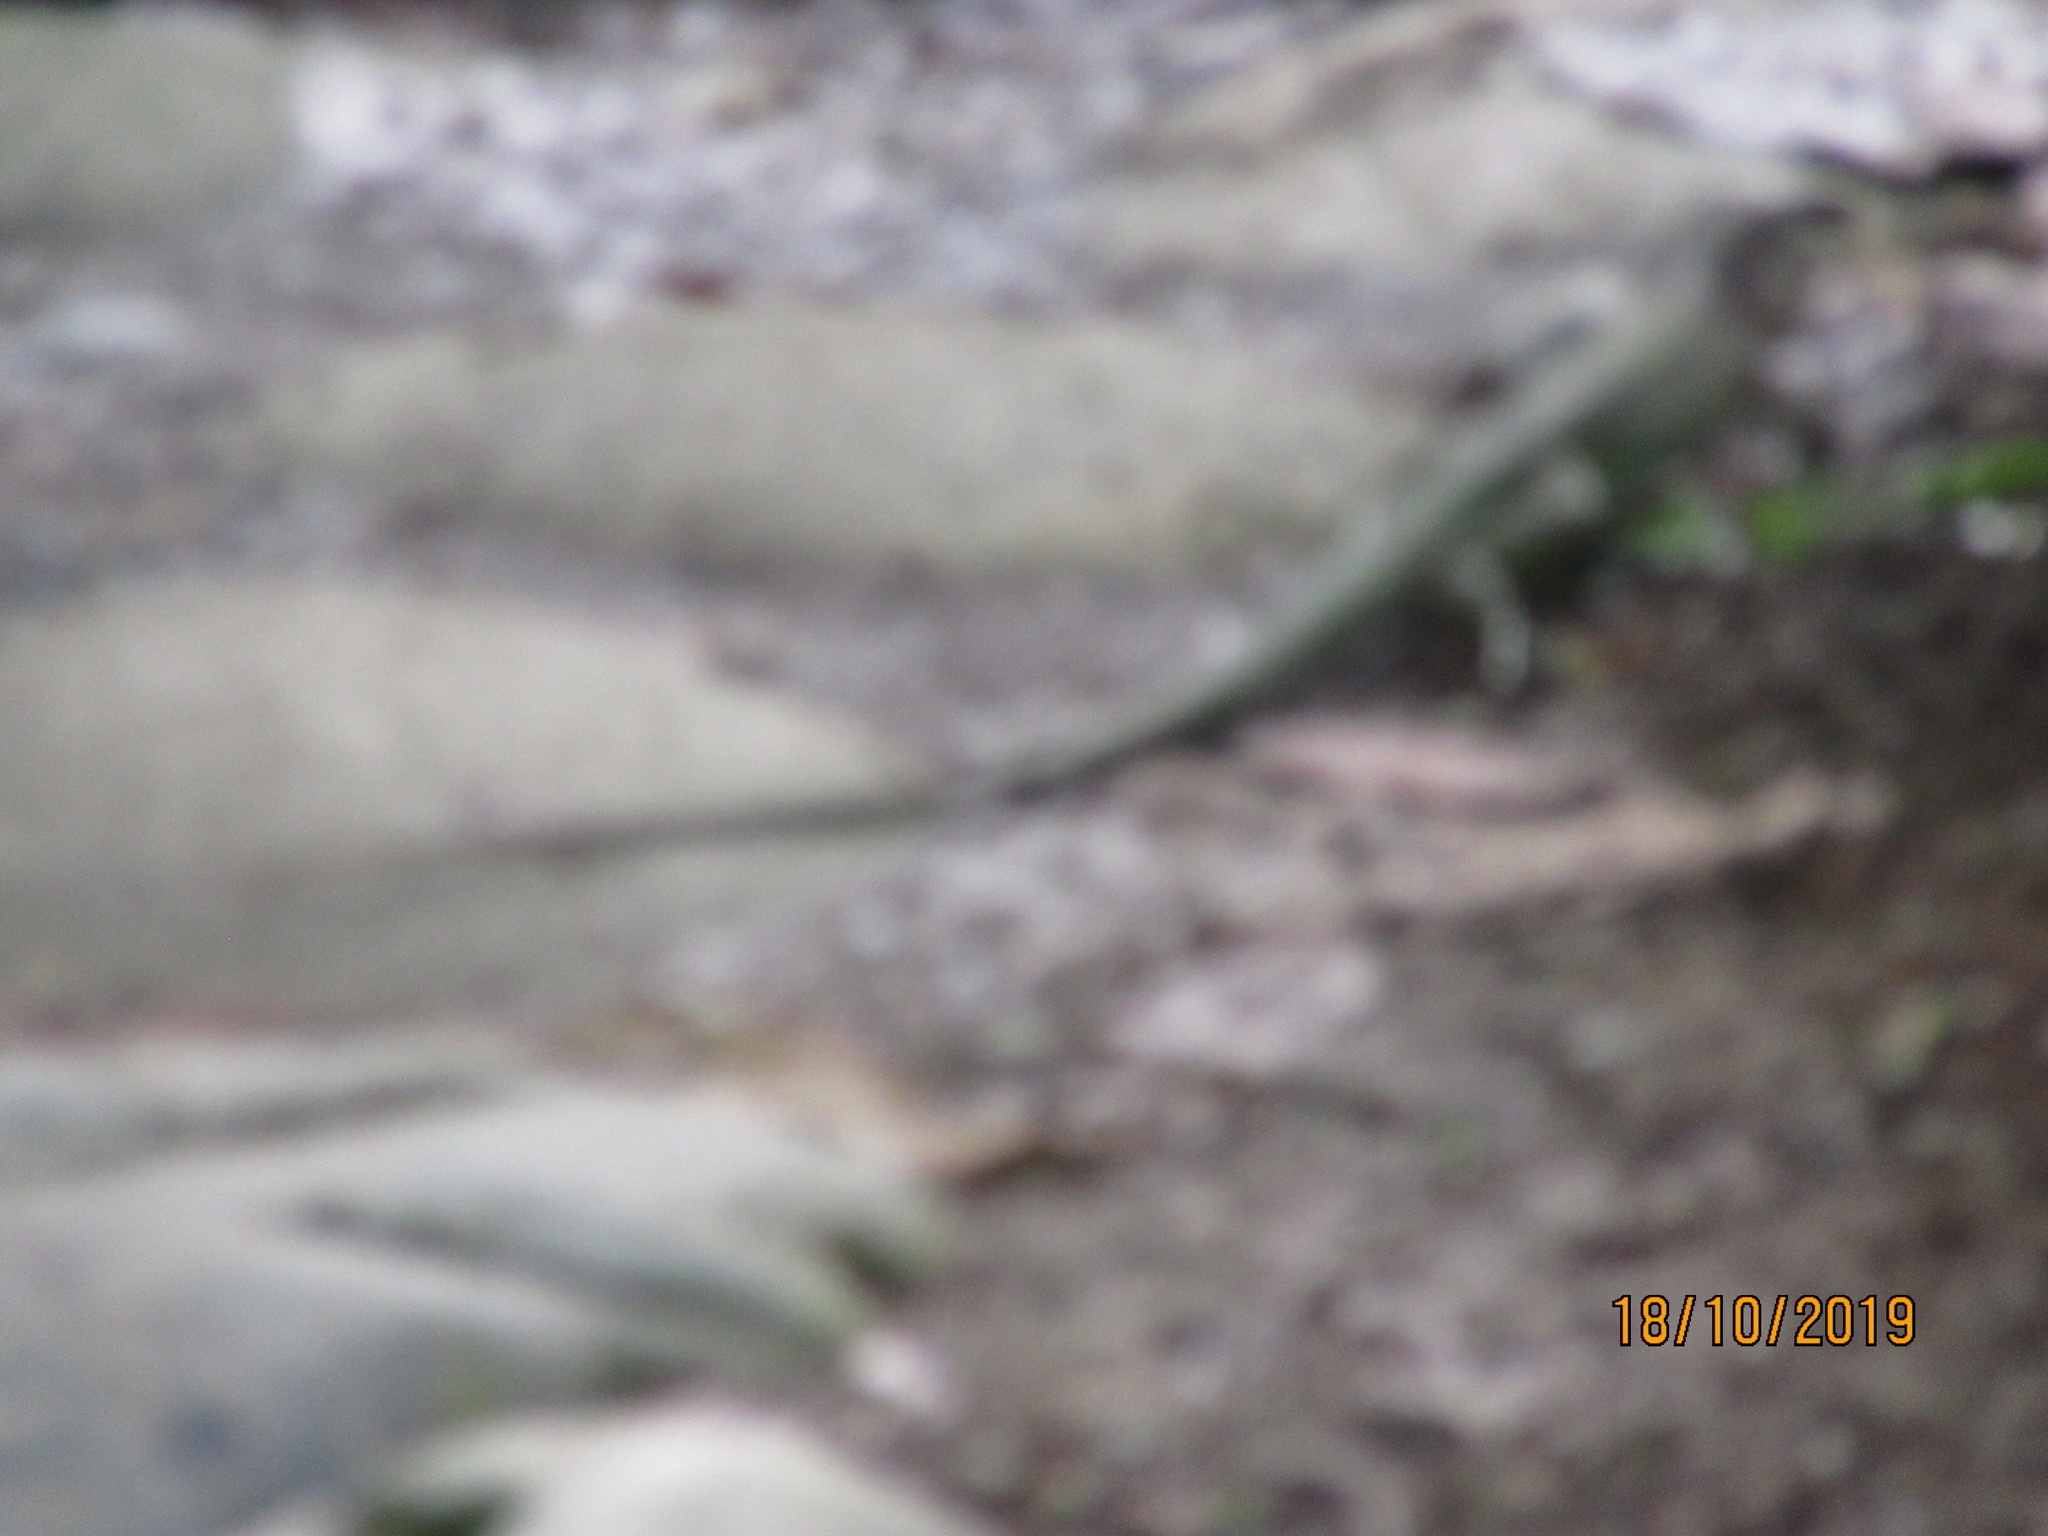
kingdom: Animalia
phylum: Chordata
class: Squamata
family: Teiidae
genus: Ameiva
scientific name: Ameiva ameiva
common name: Giant ameiva
